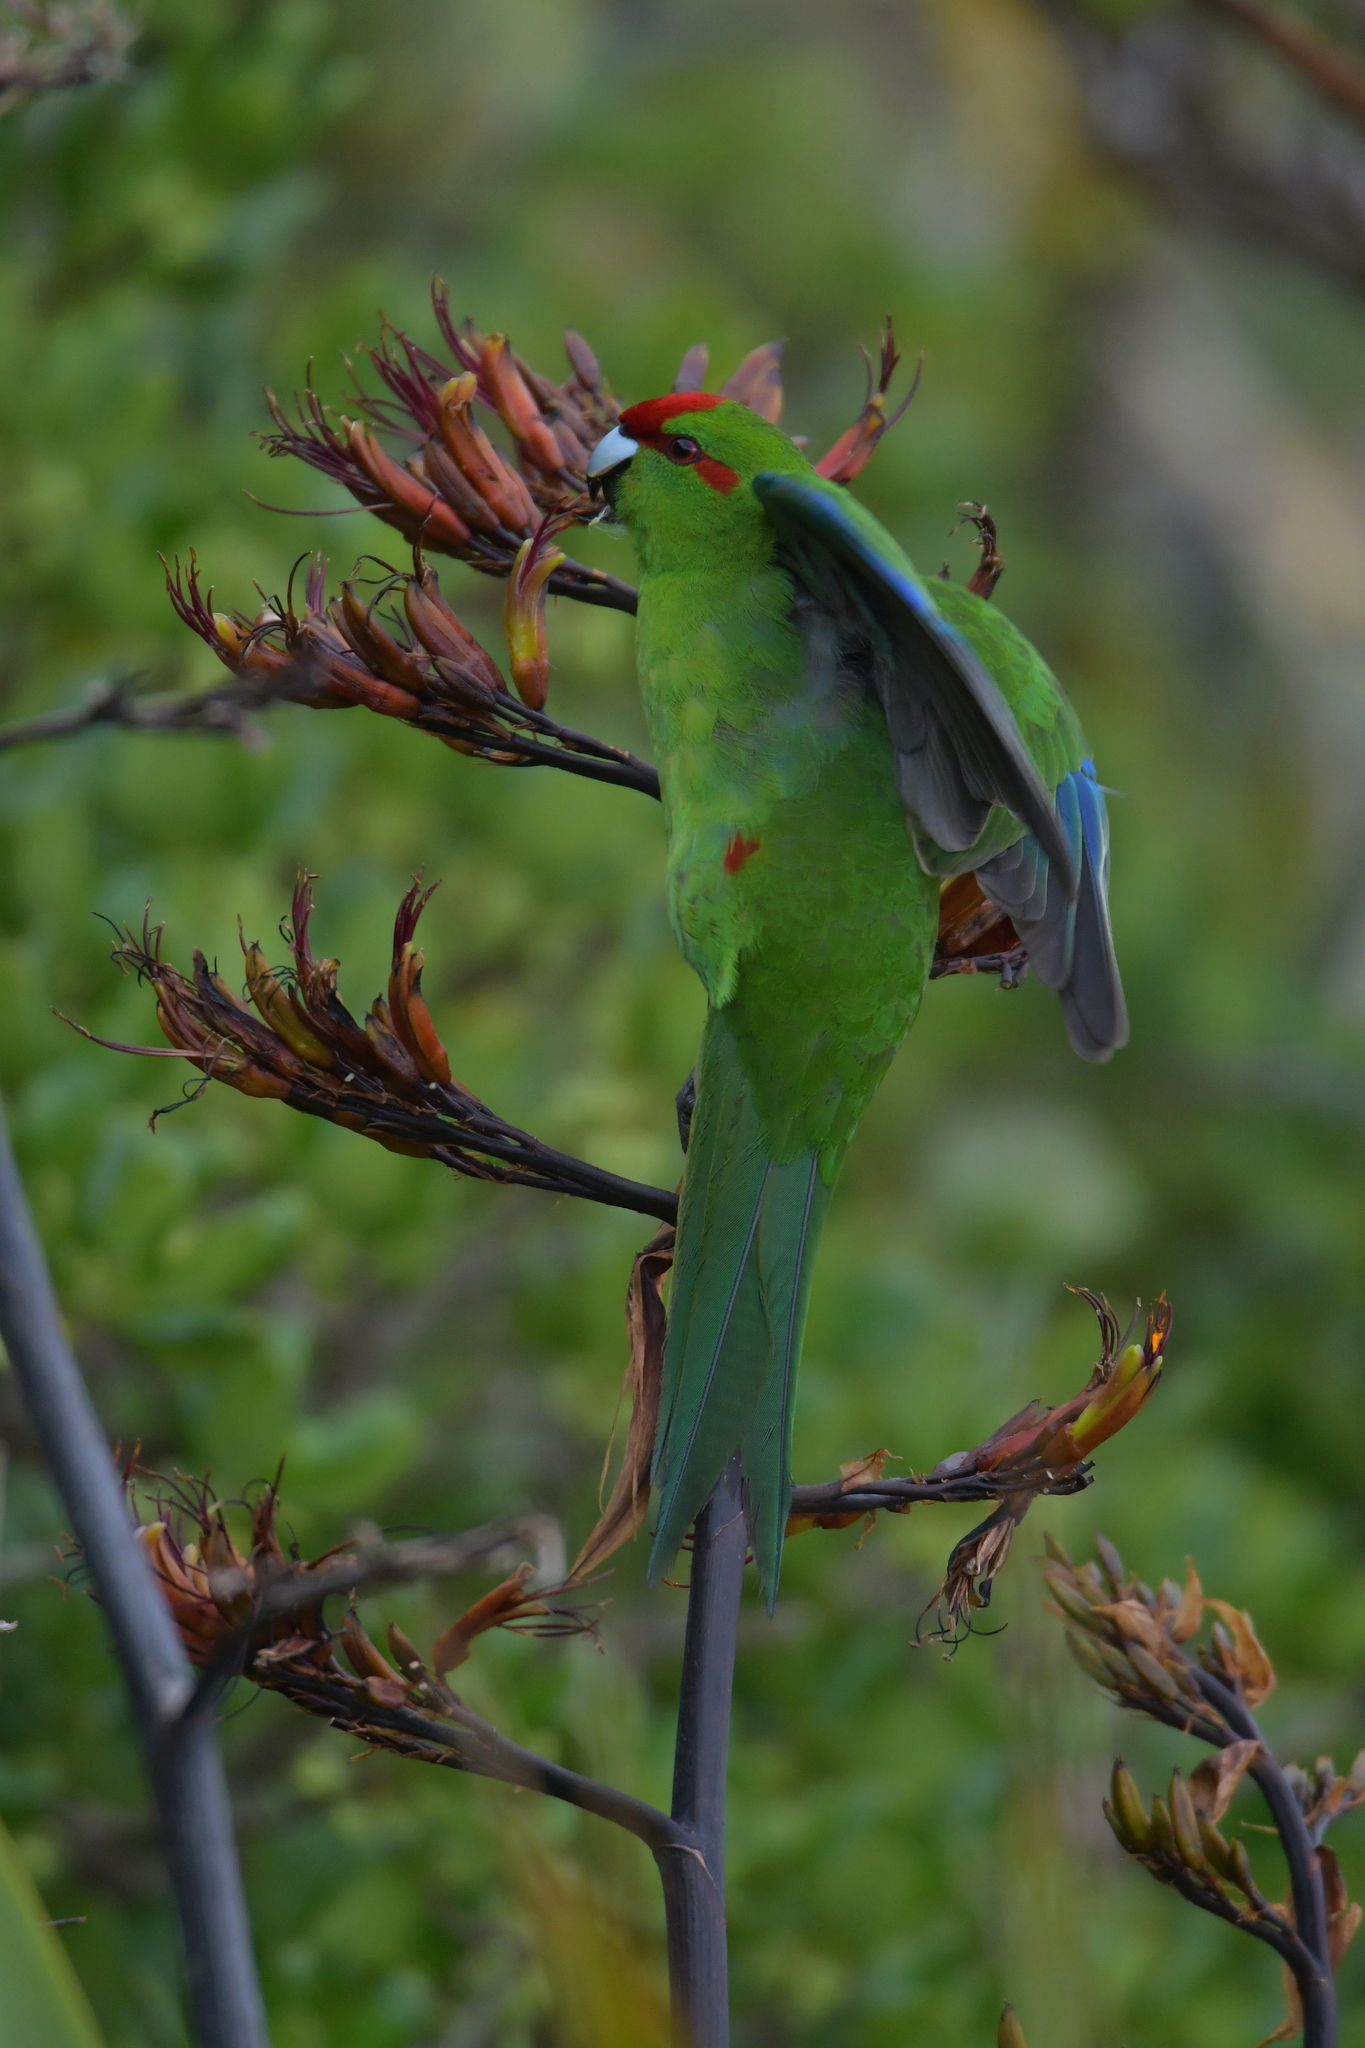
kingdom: Animalia
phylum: Chordata
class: Aves
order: Psittaciformes
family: Psittacidae
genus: Cyanoramphus
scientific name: Cyanoramphus novaezelandiae
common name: Red-fronted parakeet
